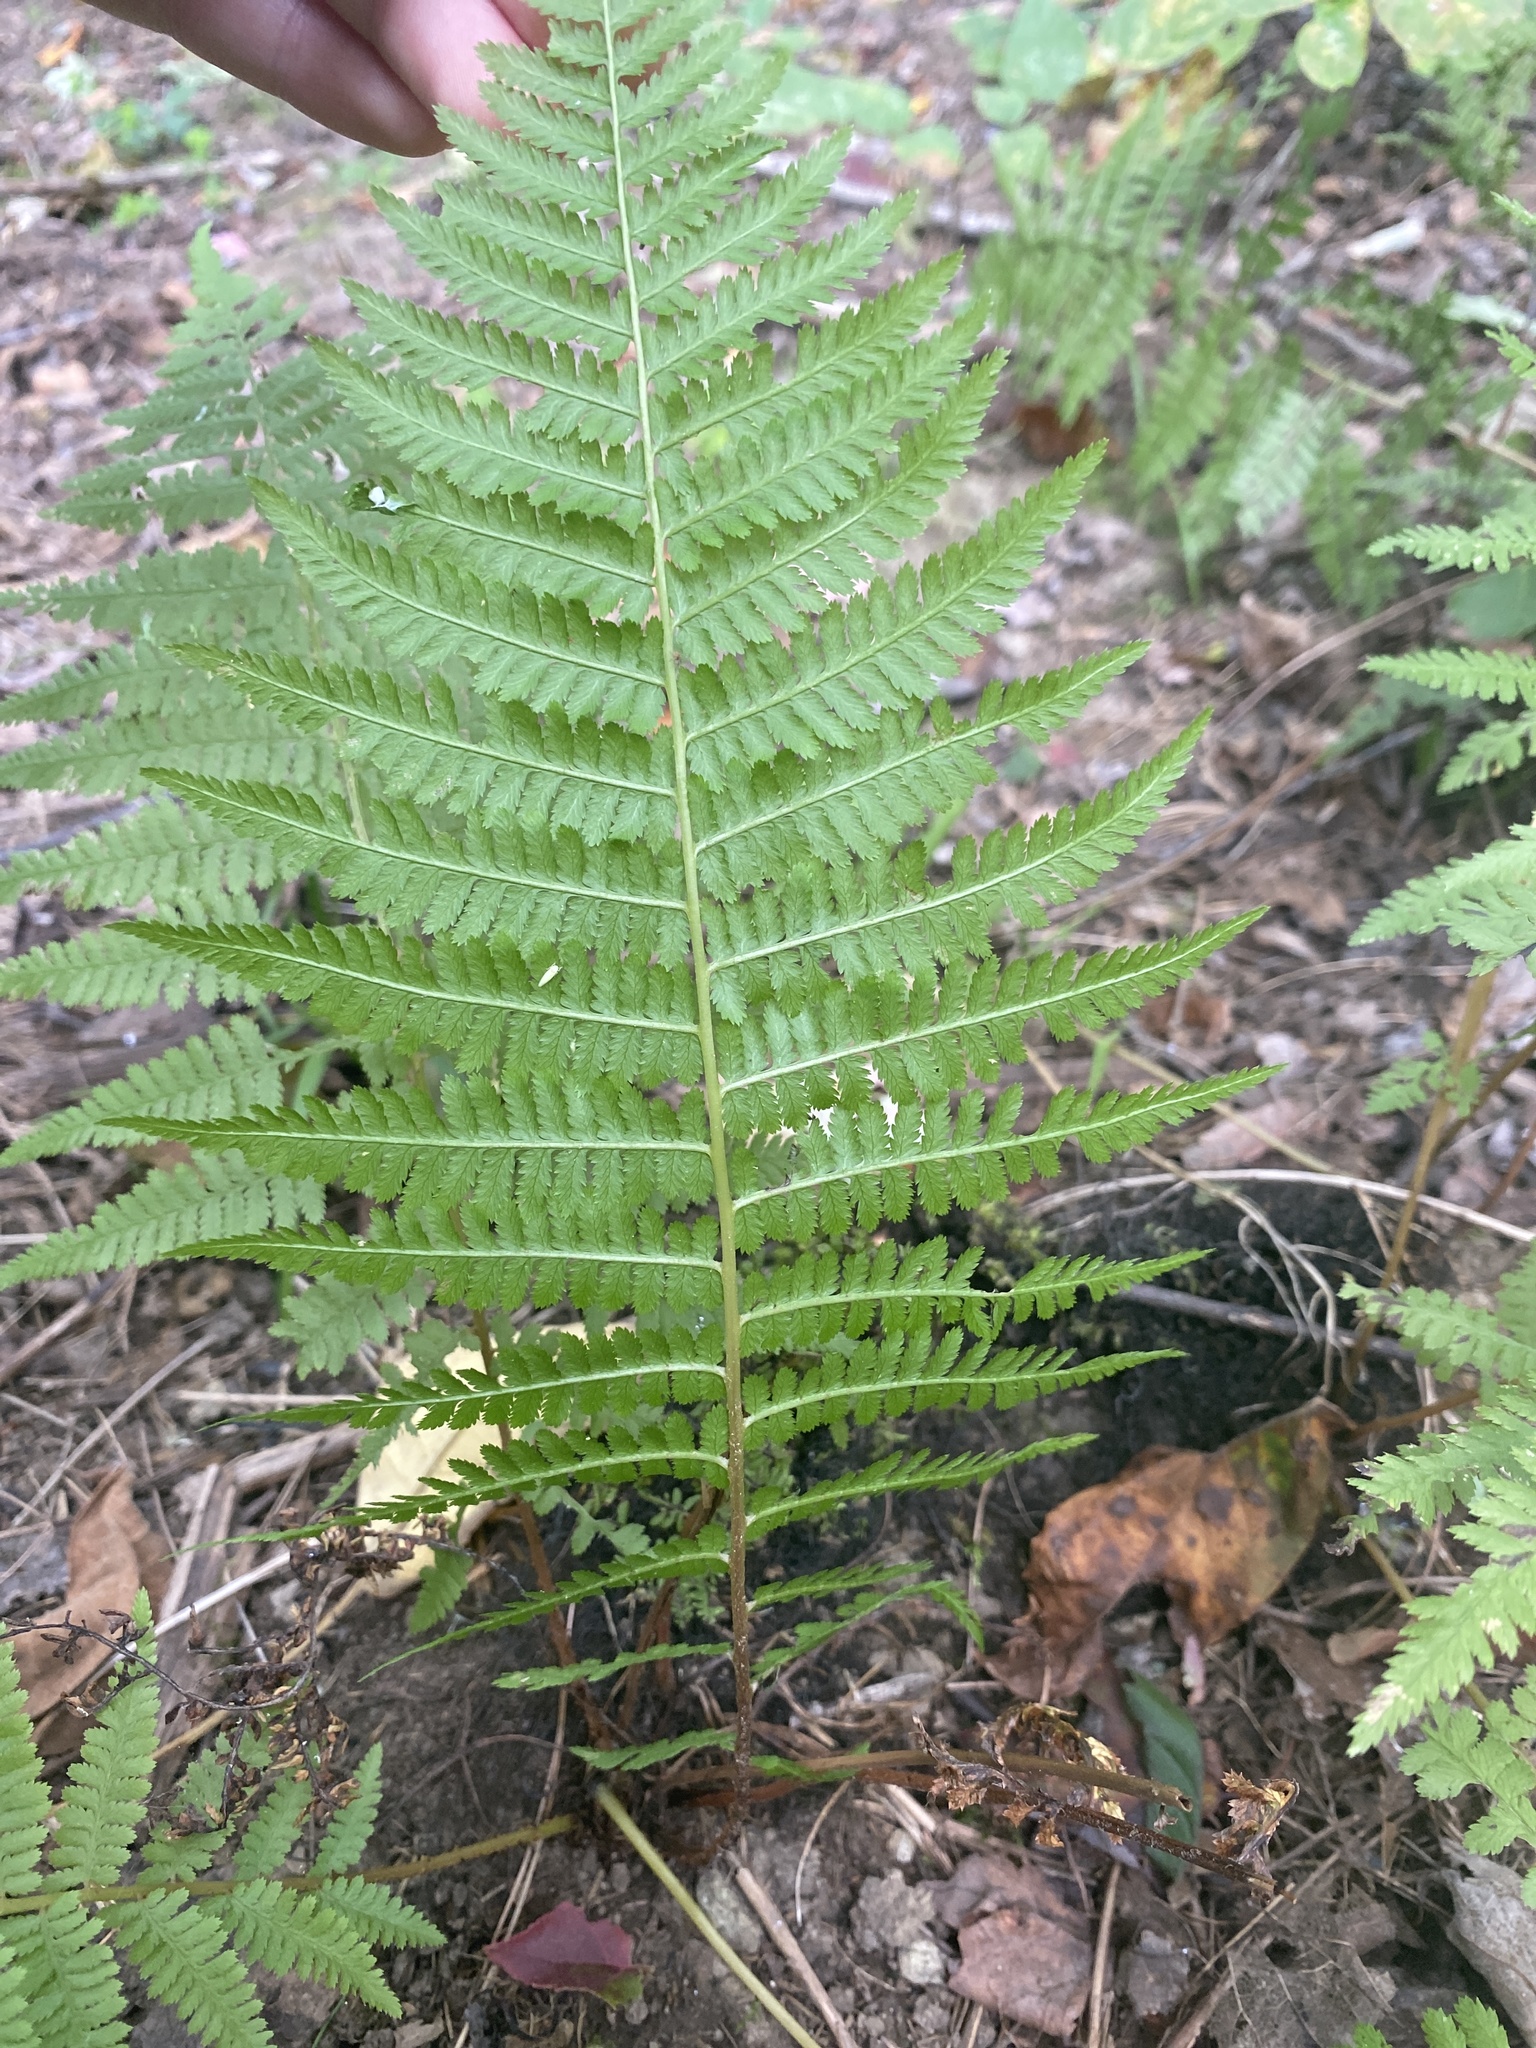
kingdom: Plantae
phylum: Tracheophyta
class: Polypodiopsida
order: Polypodiales
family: Dryopteridaceae
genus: Dryopteris
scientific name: Dryopteris intermedia
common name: Evergreen wood fern
